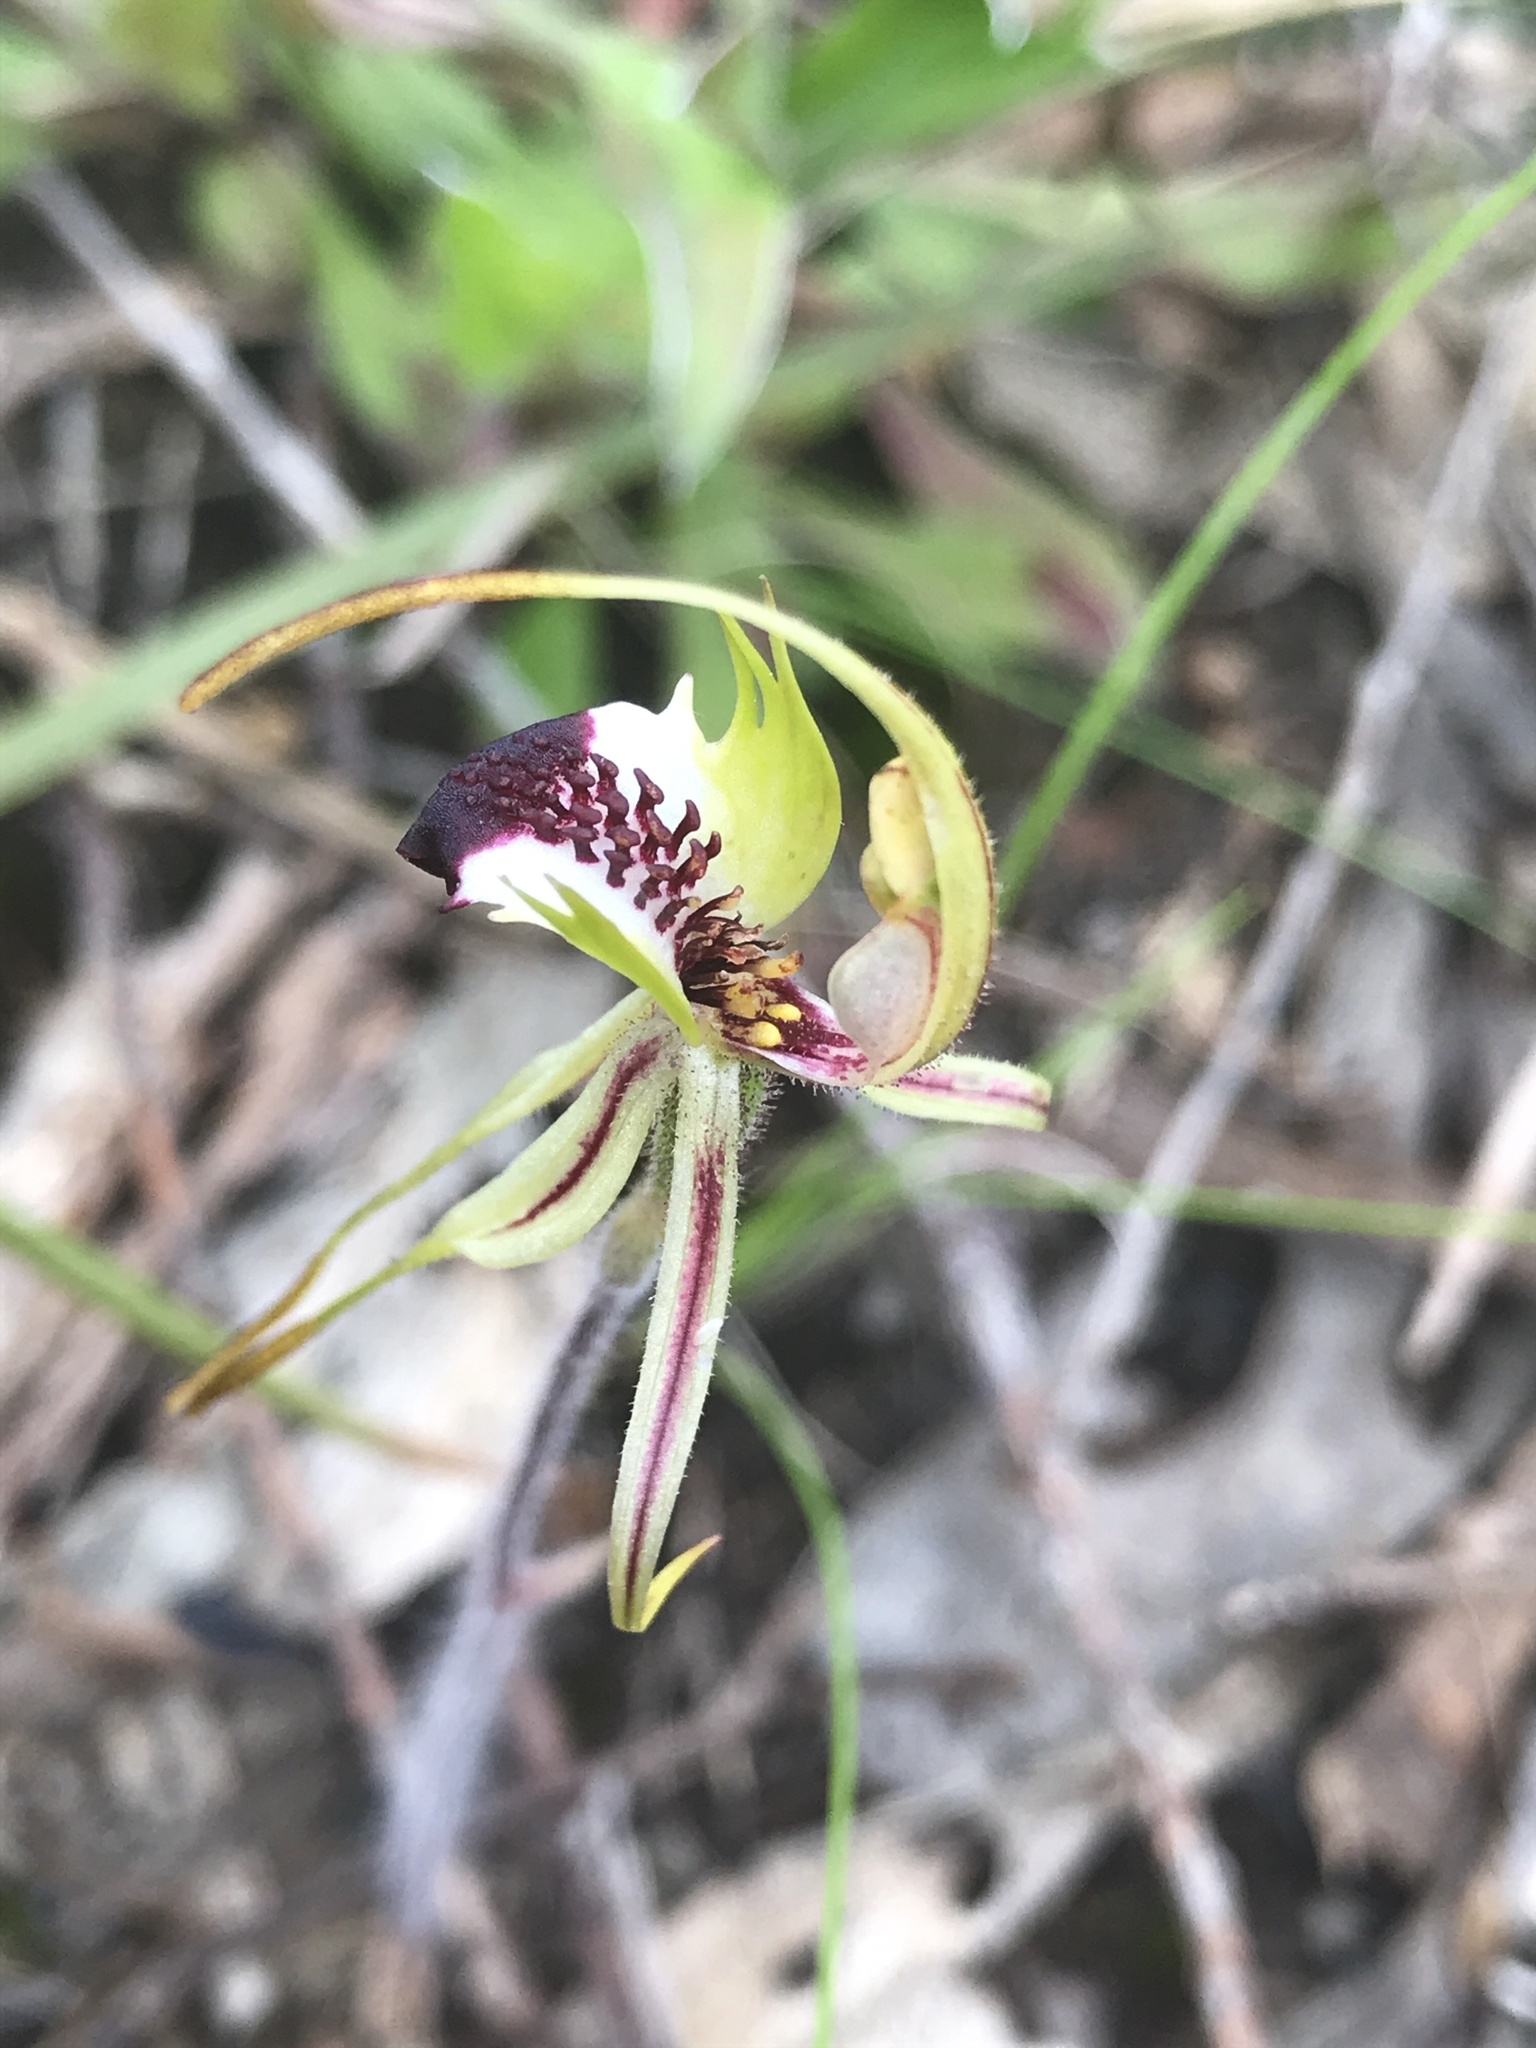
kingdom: Plantae
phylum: Tracheophyta
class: Liliopsida
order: Asparagales
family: Orchidaceae
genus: Caladenia
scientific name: Caladenia tentaculata
